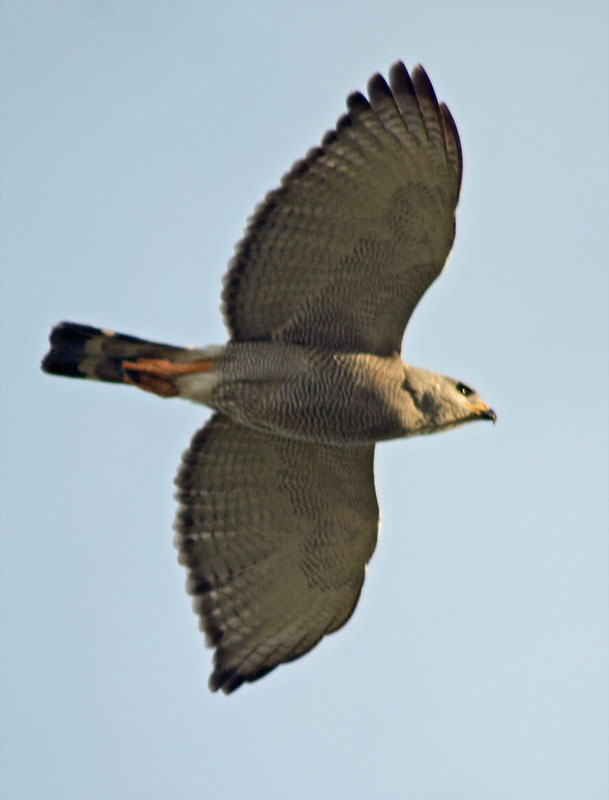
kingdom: Animalia
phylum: Chordata
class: Aves
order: Accipitriformes
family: Accipitridae
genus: Buteo
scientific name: Buteo nitidus
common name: Grey-lined hawk
